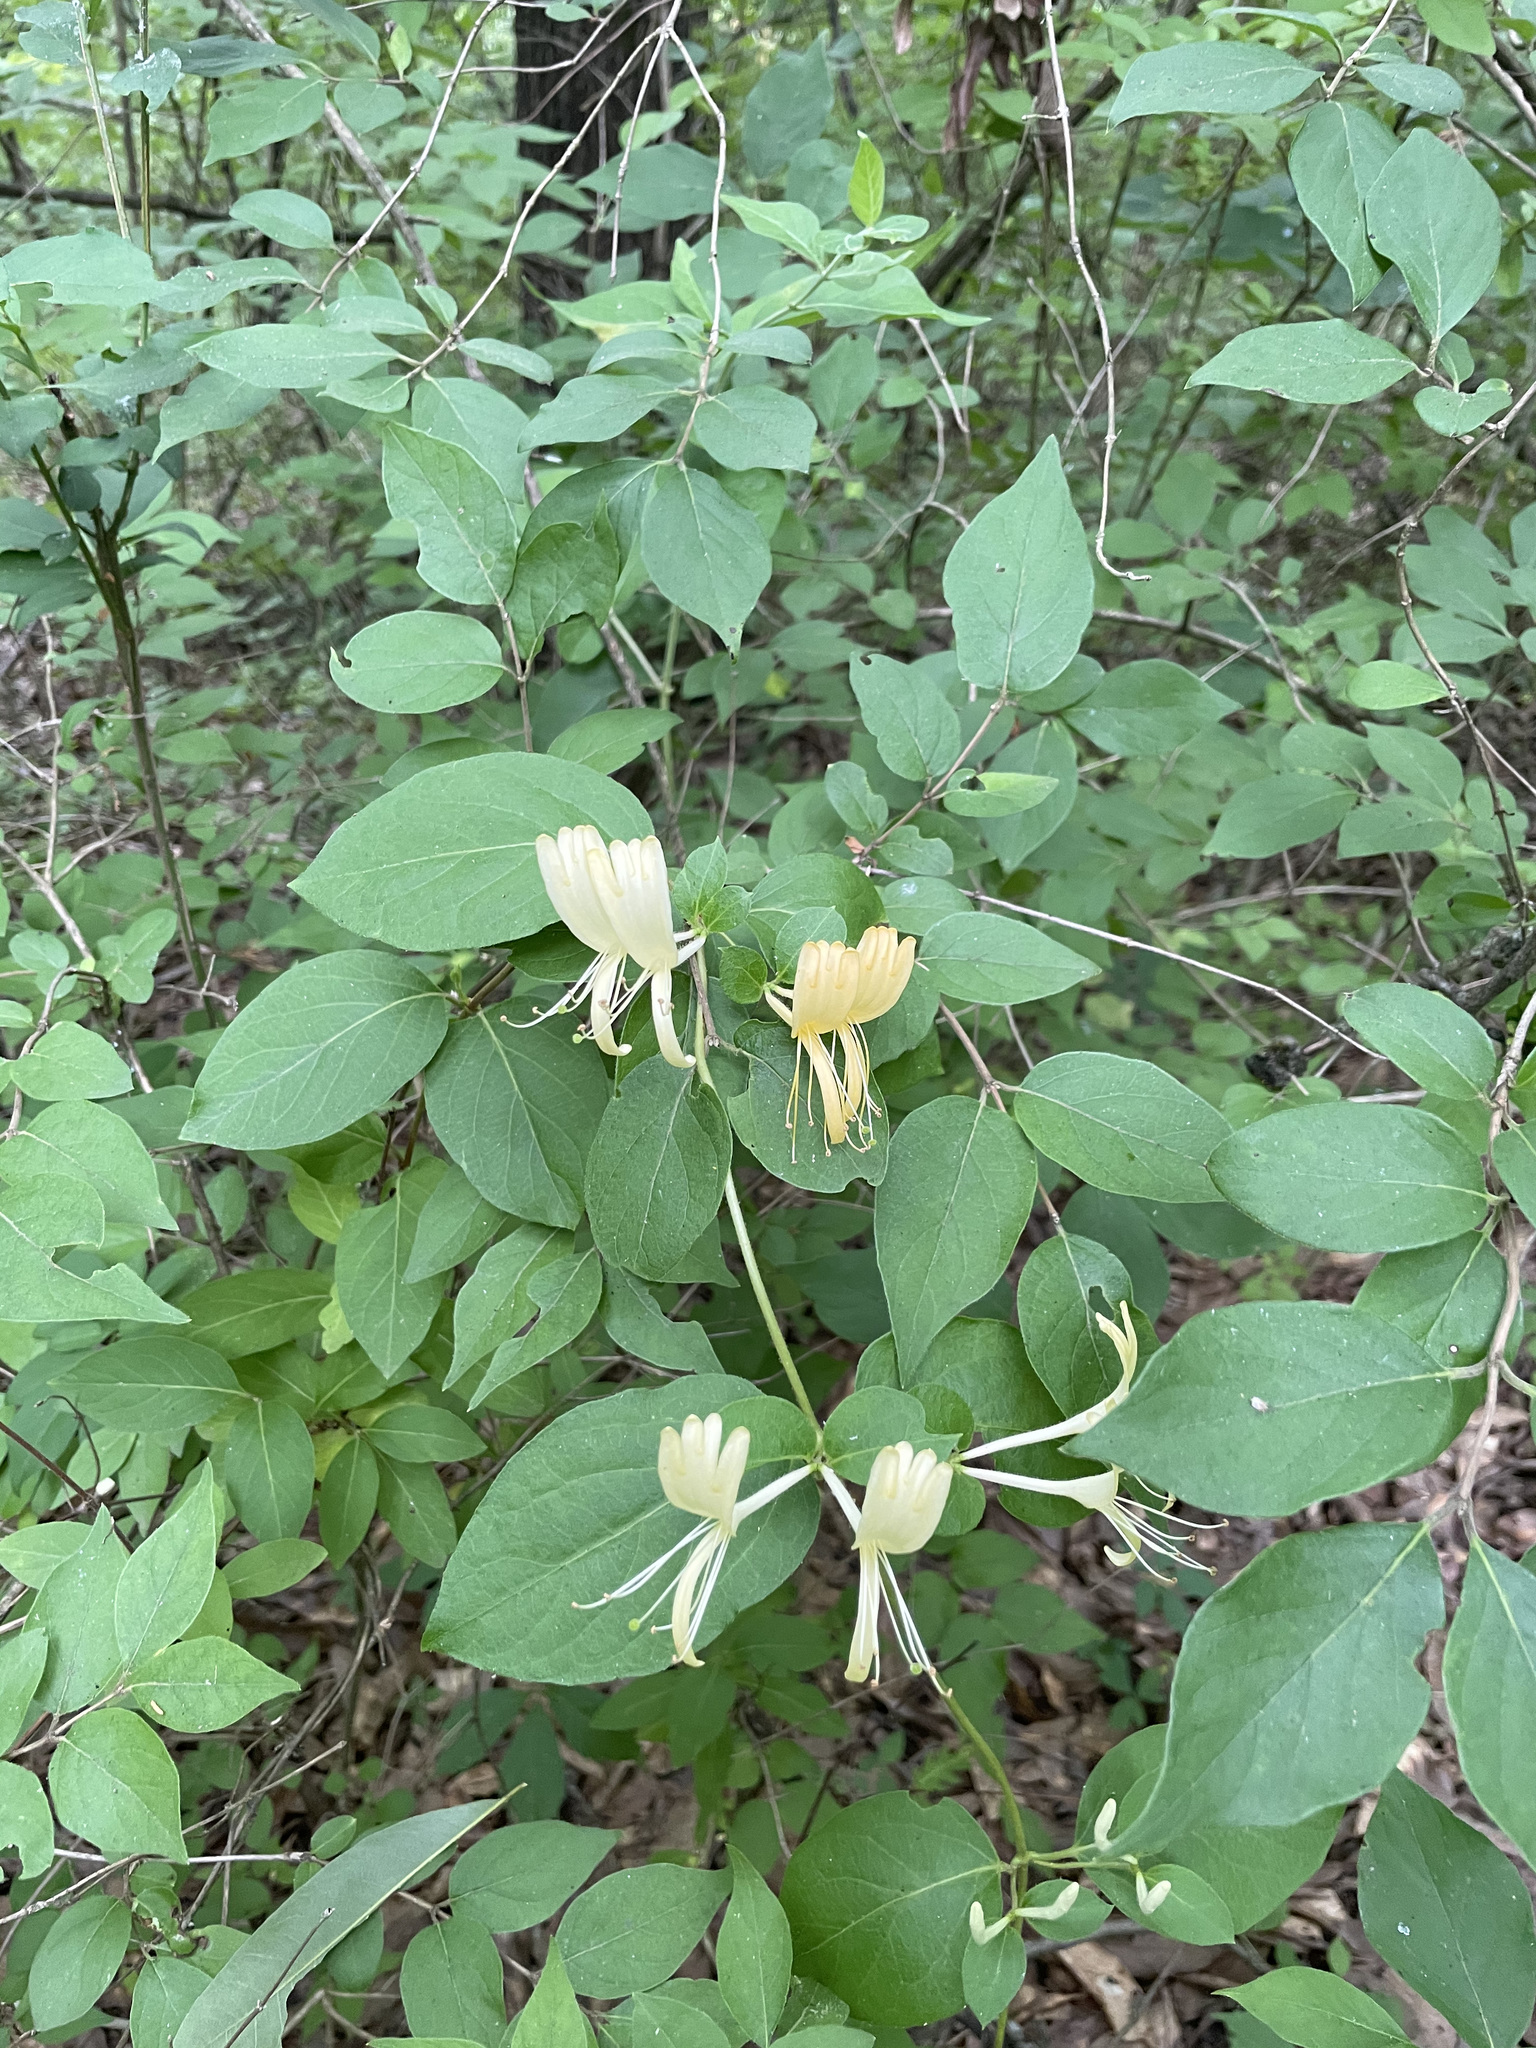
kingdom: Plantae
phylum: Tracheophyta
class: Magnoliopsida
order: Dipsacales
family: Caprifoliaceae
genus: Lonicera
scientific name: Lonicera japonica
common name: Japanese honeysuckle
